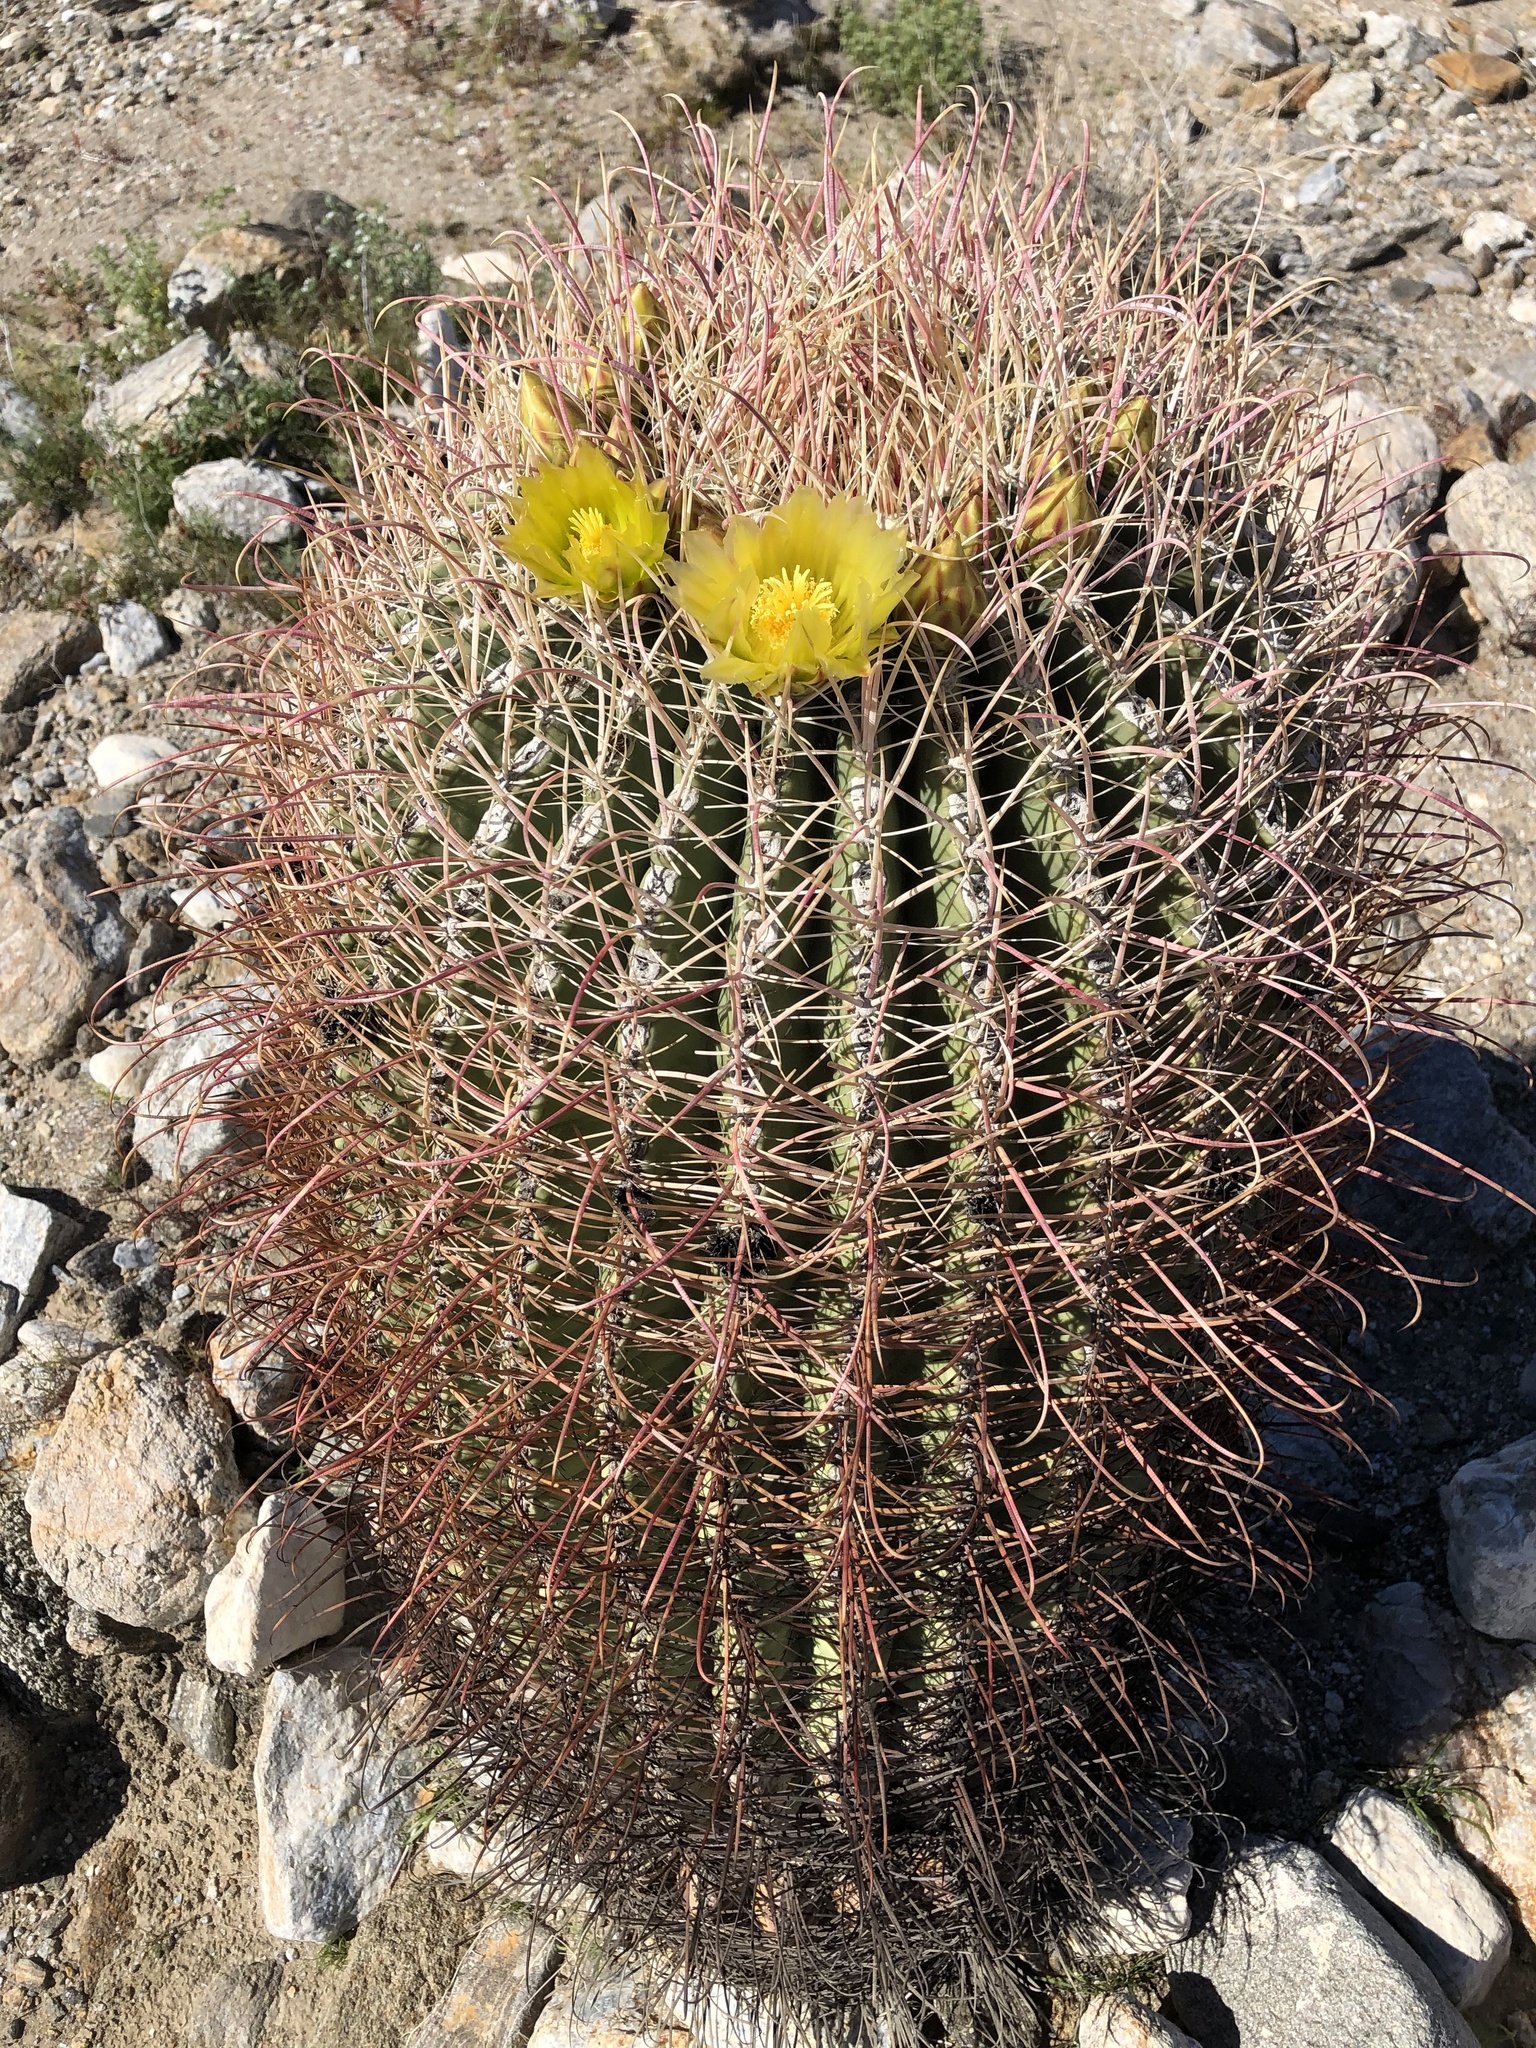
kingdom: Plantae
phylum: Tracheophyta
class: Magnoliopsida
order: Caryophyllales
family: Cactaceae
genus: Ferocactus
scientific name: Ferocactus cylindraceus
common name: California barrel cactus
